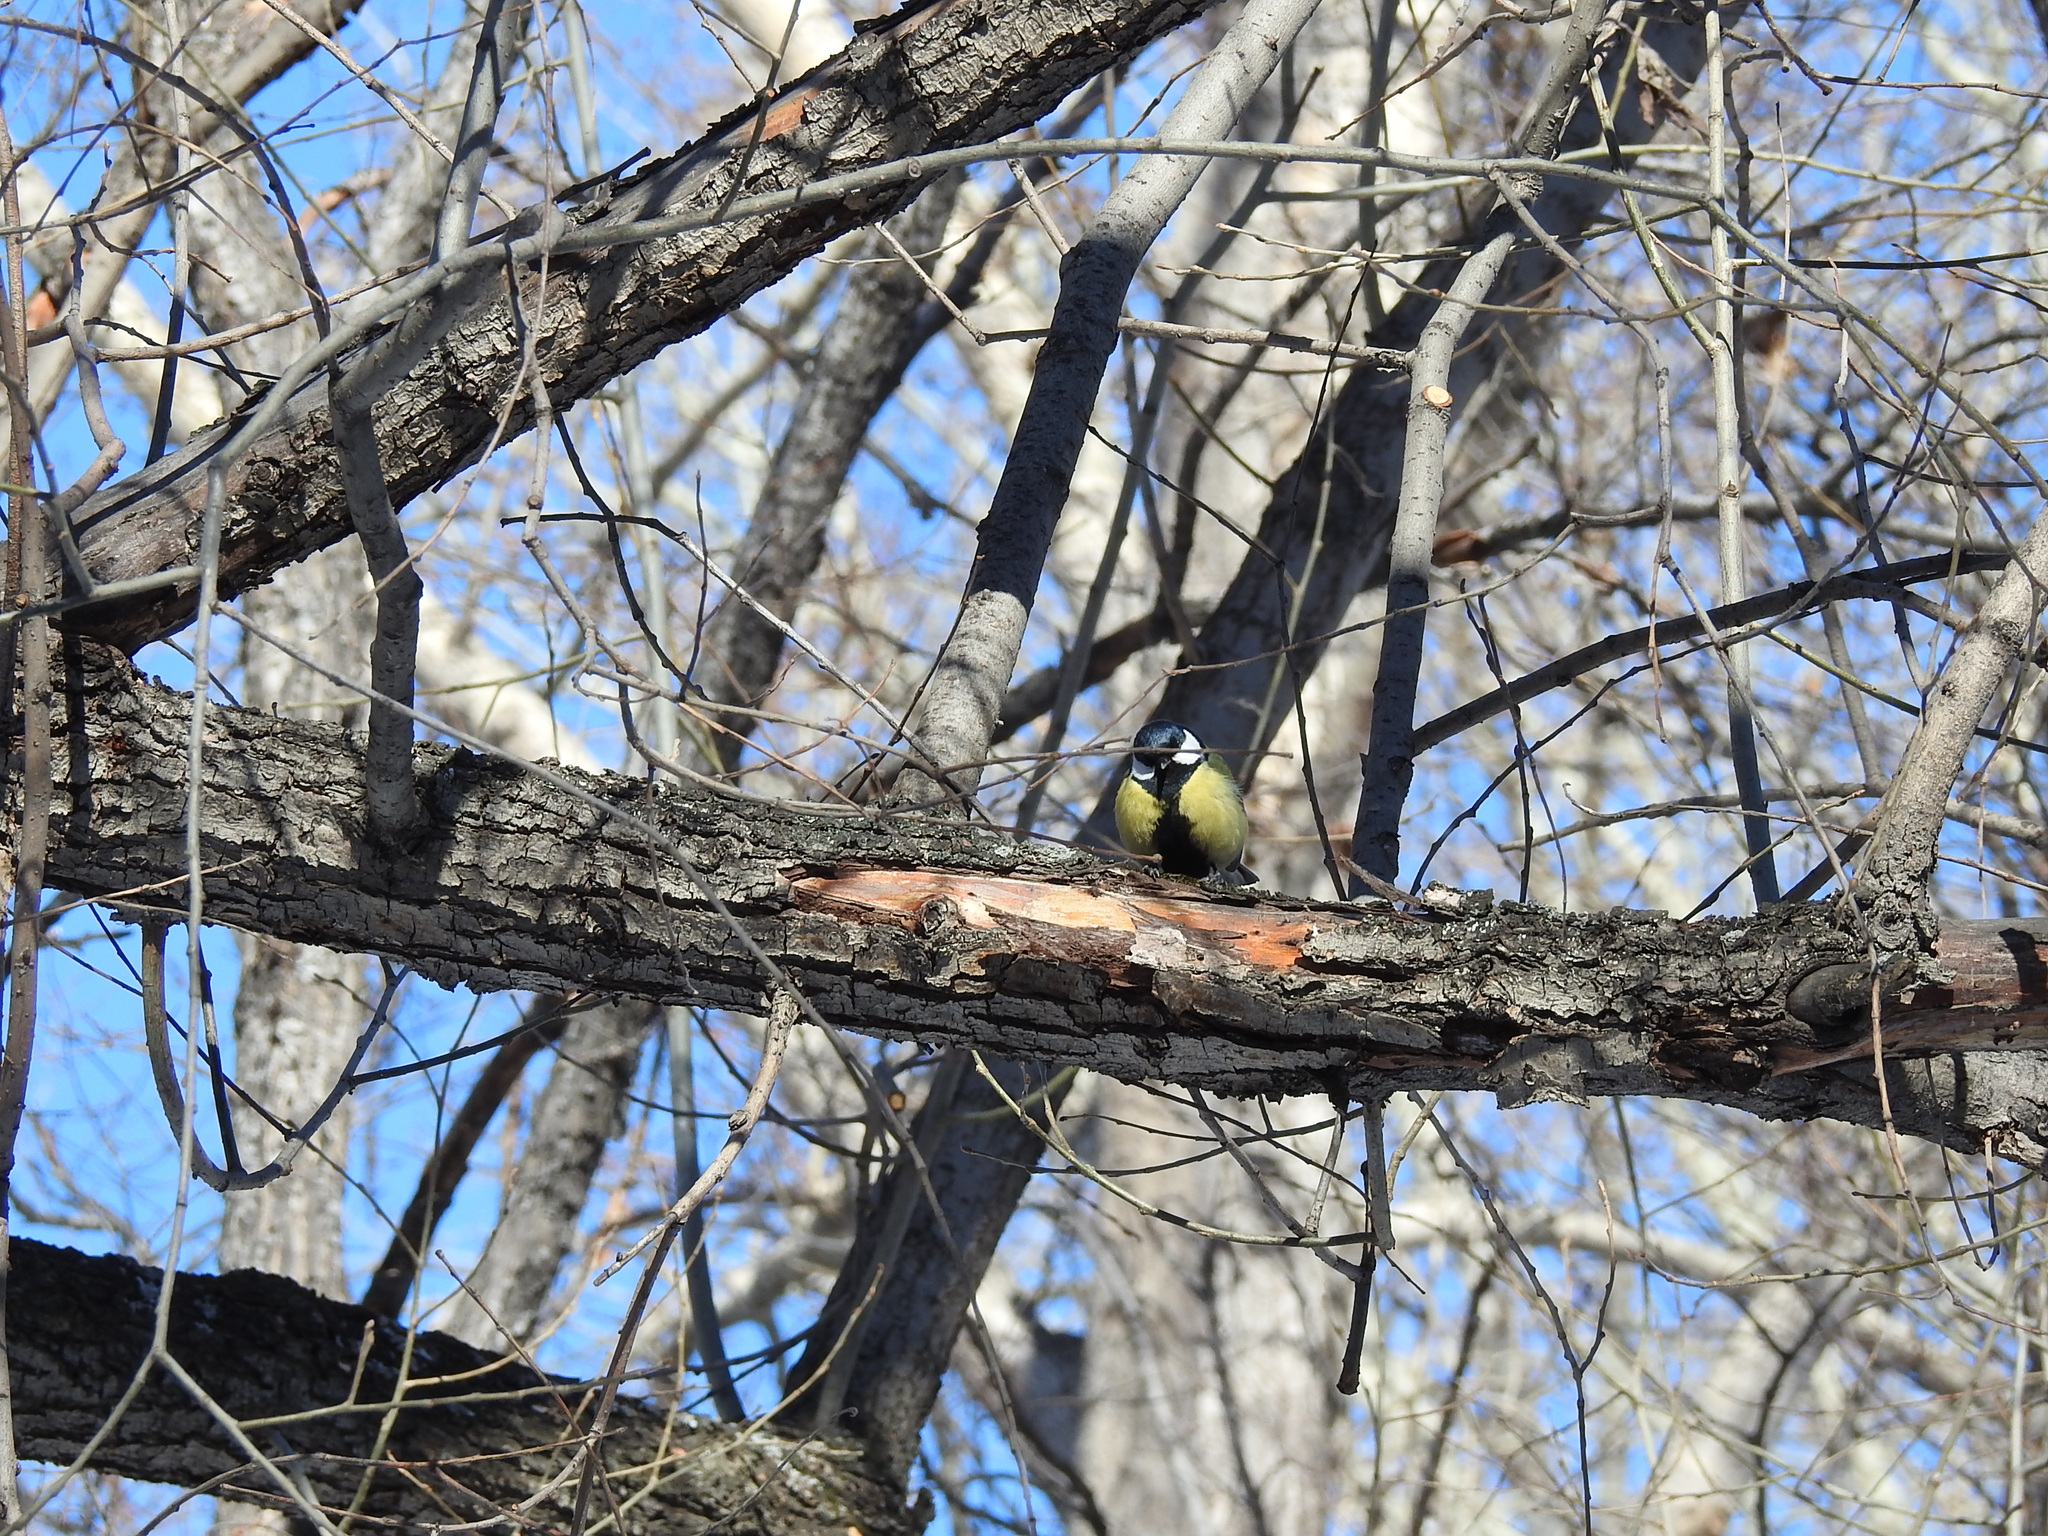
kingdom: Animalia
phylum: Chordata
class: Aves
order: Passeriformes
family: Paridae
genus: Parus
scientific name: Parus major
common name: Great tit
